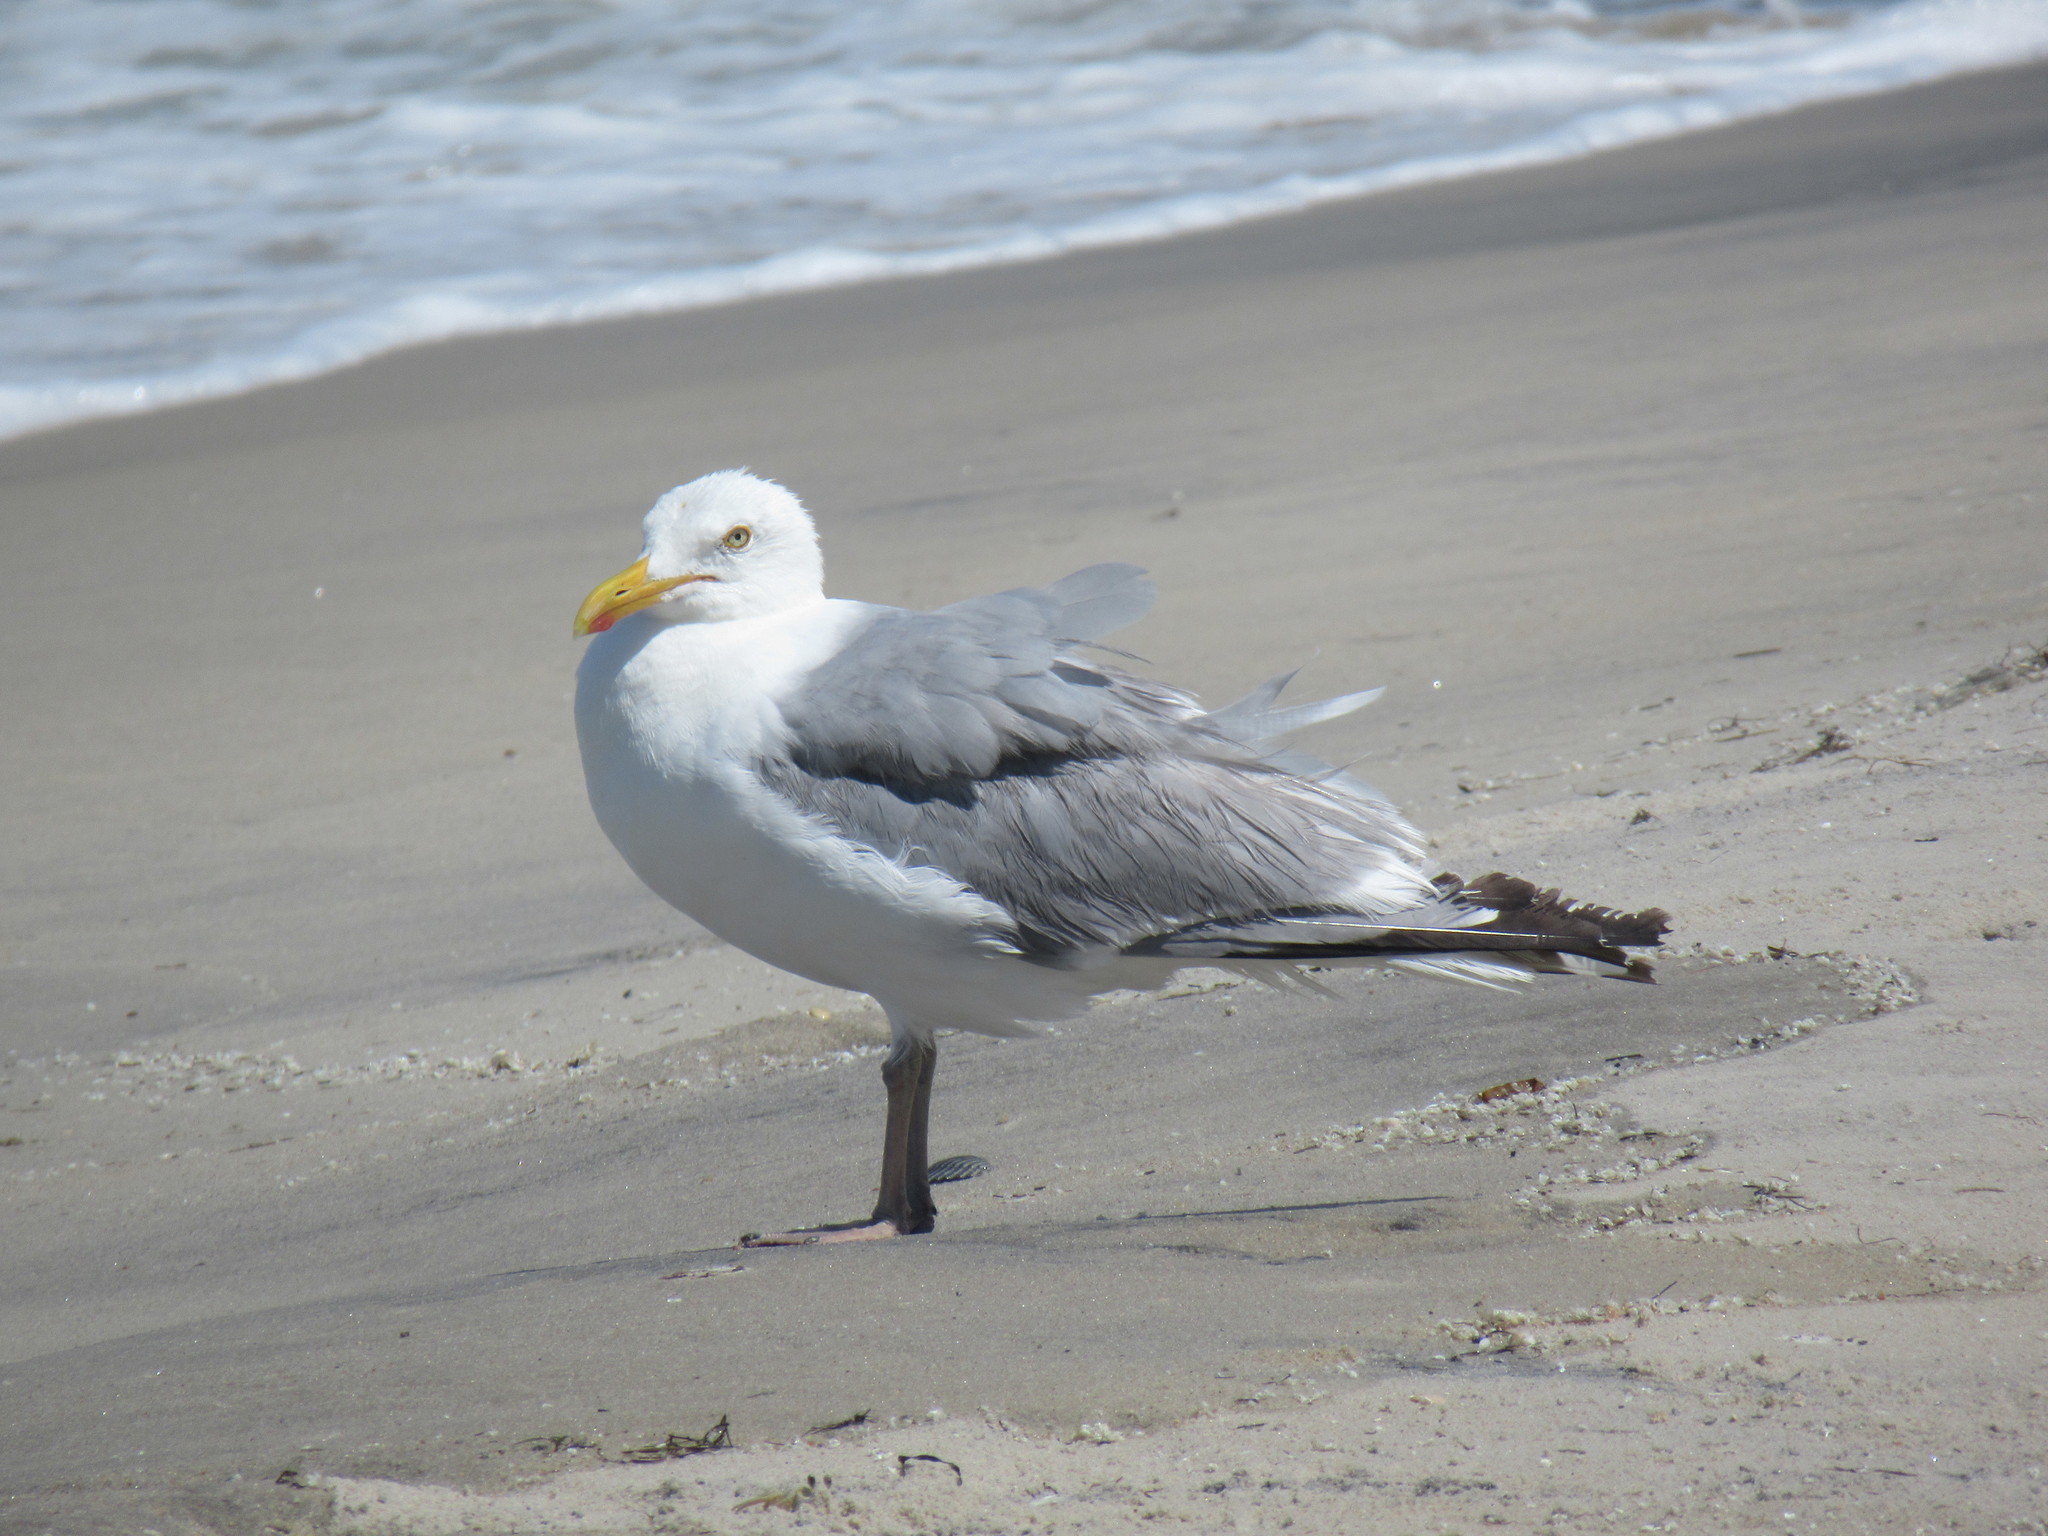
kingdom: Animalia
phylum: Chordata
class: Aves
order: Charadriiformes
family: Laridae
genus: Larus
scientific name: Larus argentatus
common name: Herring gull
